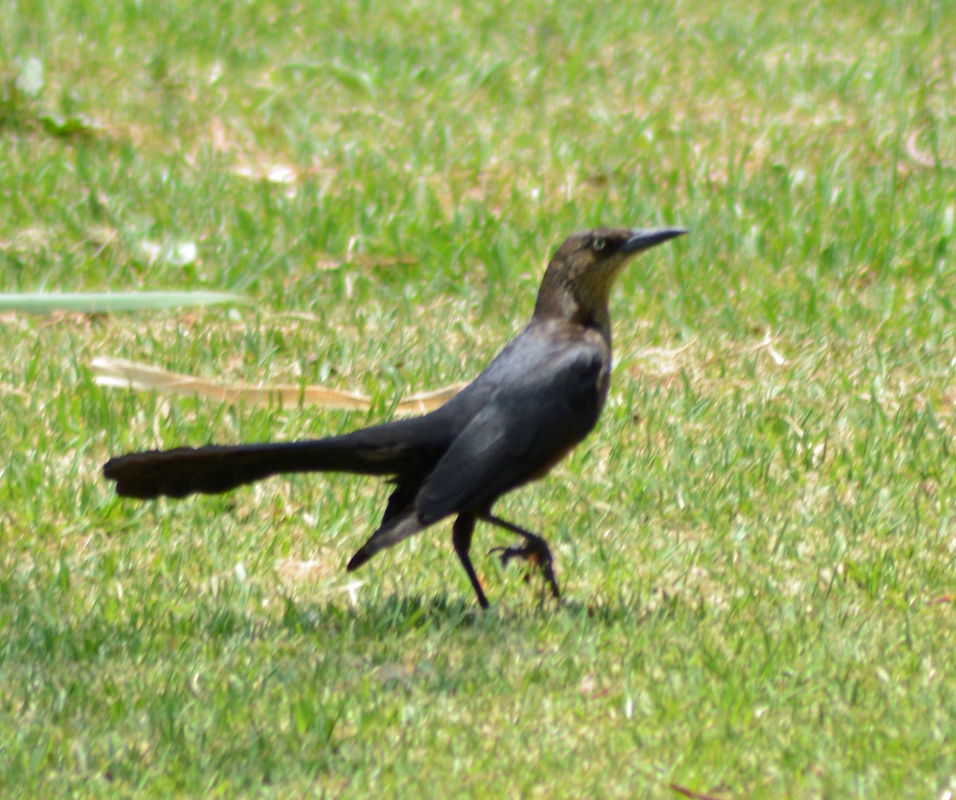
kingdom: Animalia
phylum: Chordata
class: Aves
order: Passeriformes
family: Icteridae
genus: Quiscalus
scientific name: Quiscalus mexicanus
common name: Great-tailed grackle
